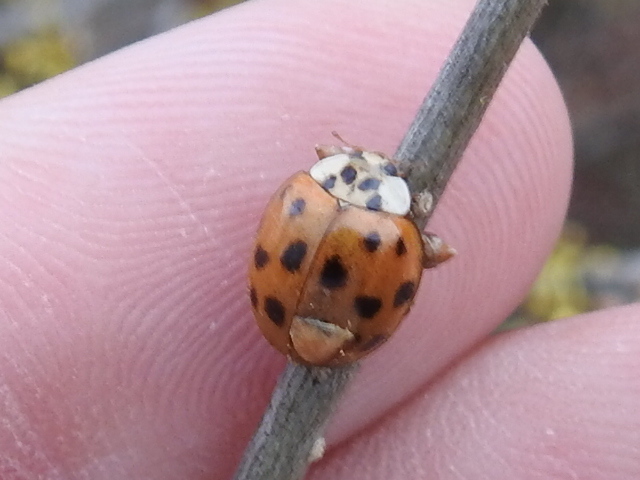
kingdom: Animalia
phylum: Arthropoda
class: Insecta
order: Coleoptera
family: Coccinellidae
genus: Harmonia
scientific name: Harmonia axyridis
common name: Harlequin ladybird
